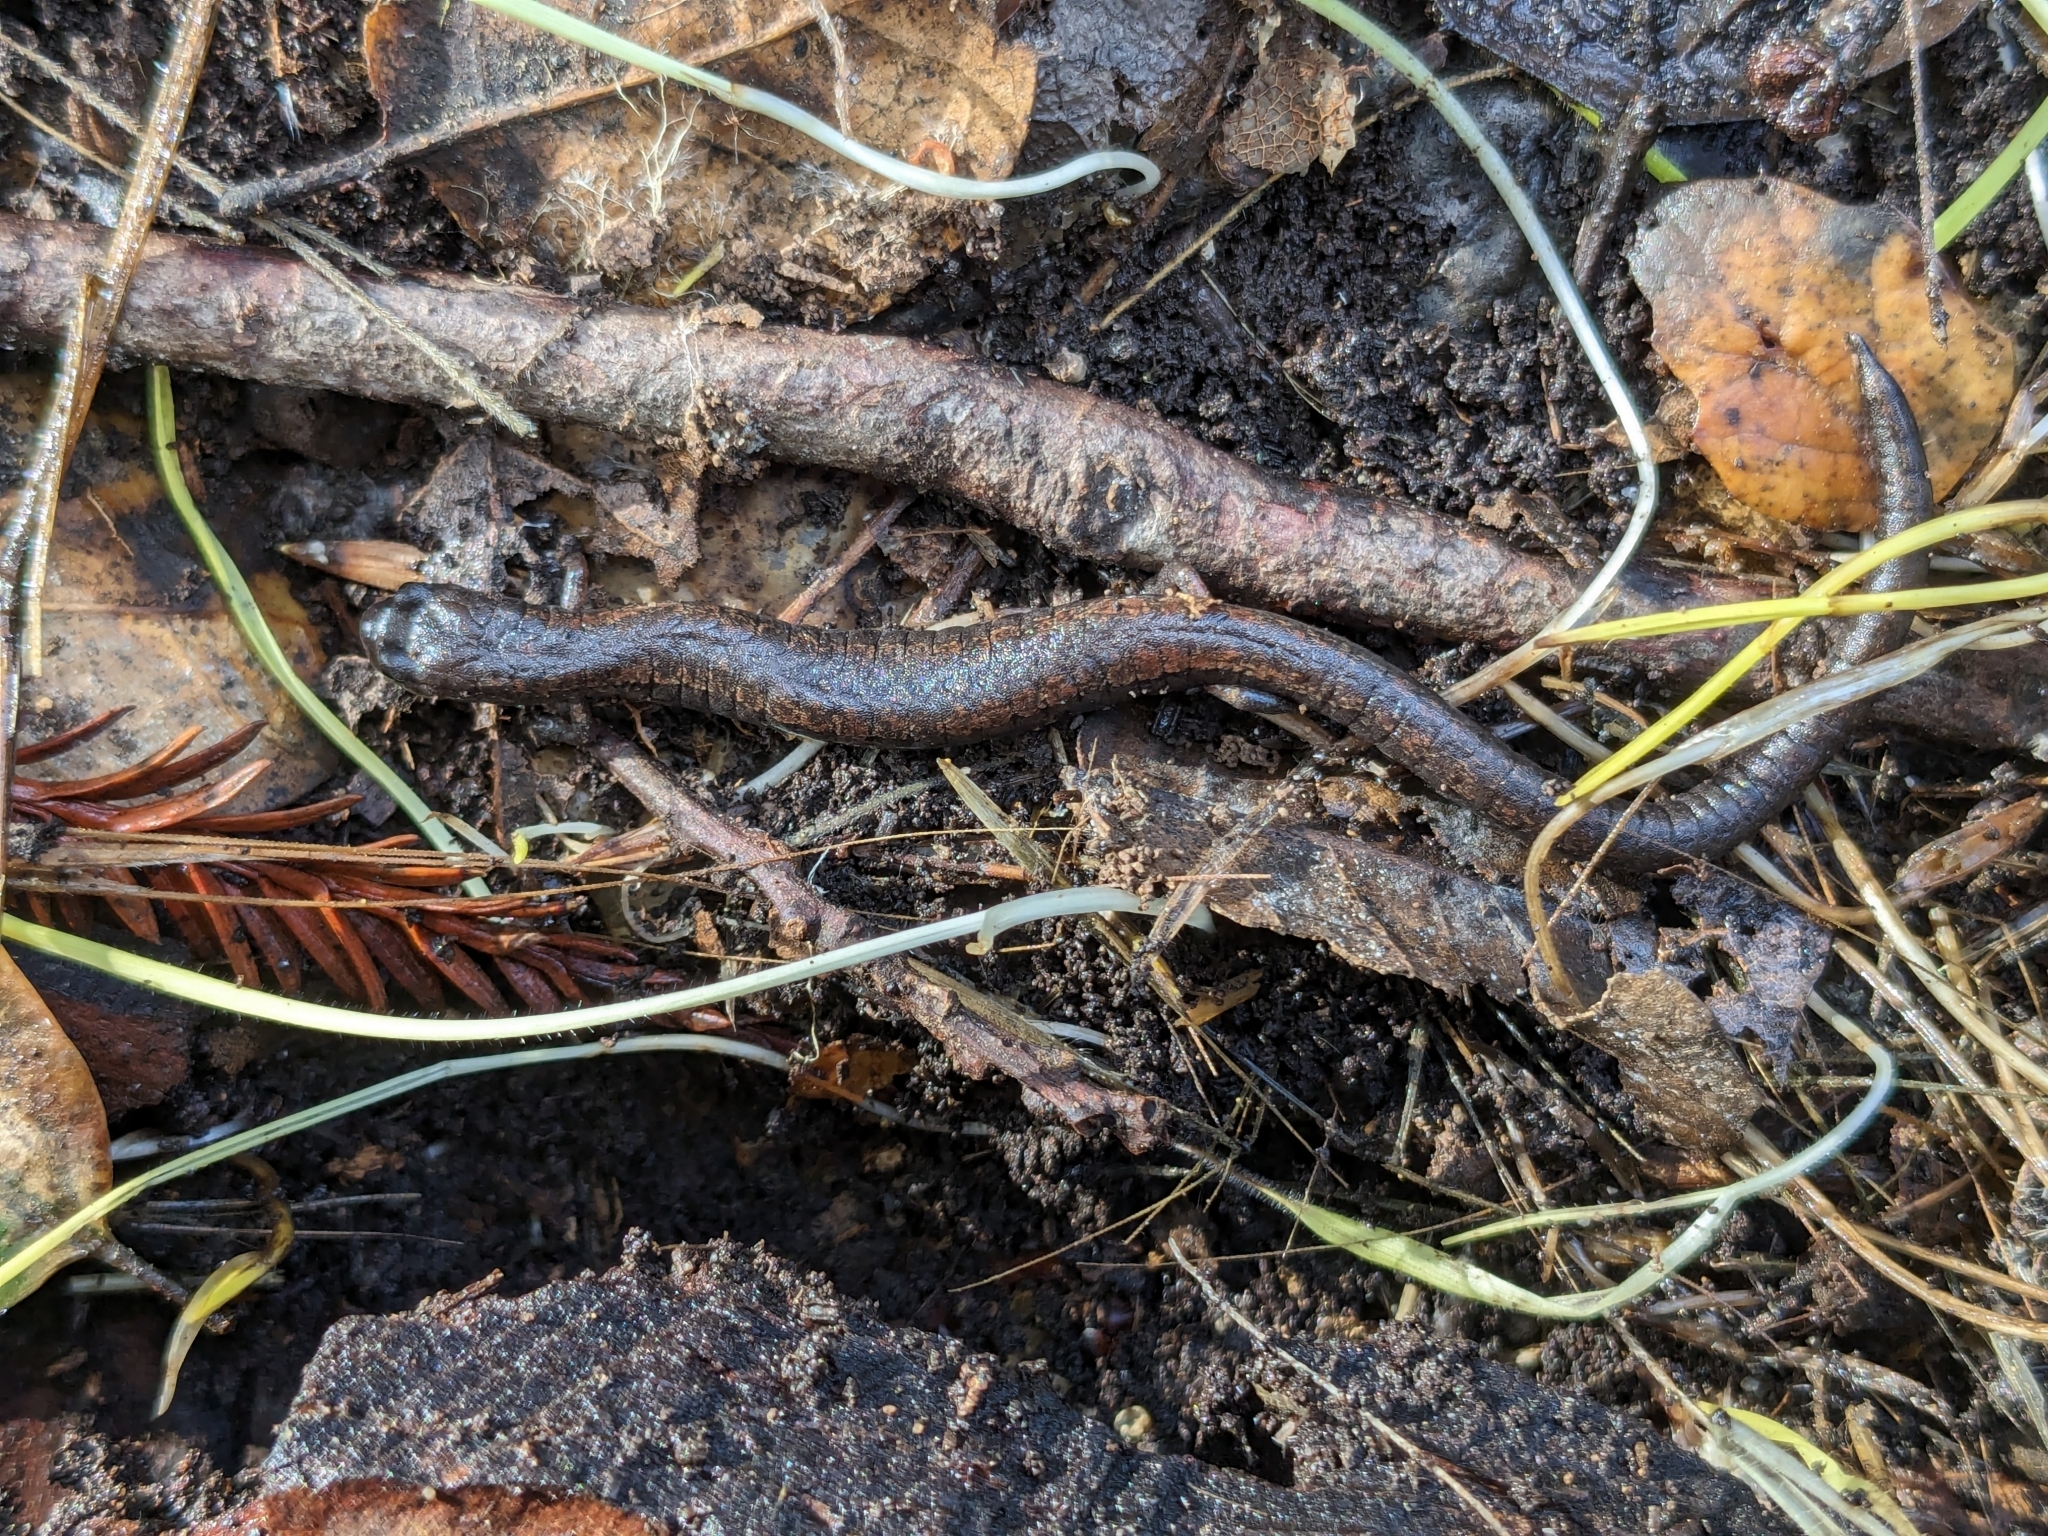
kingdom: Animalia
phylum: Chordata
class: Amphibia
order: Caudata
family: Plethodontidae
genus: Batrachoseps
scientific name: Batrachoseps attenuatus
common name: California slender salamander
